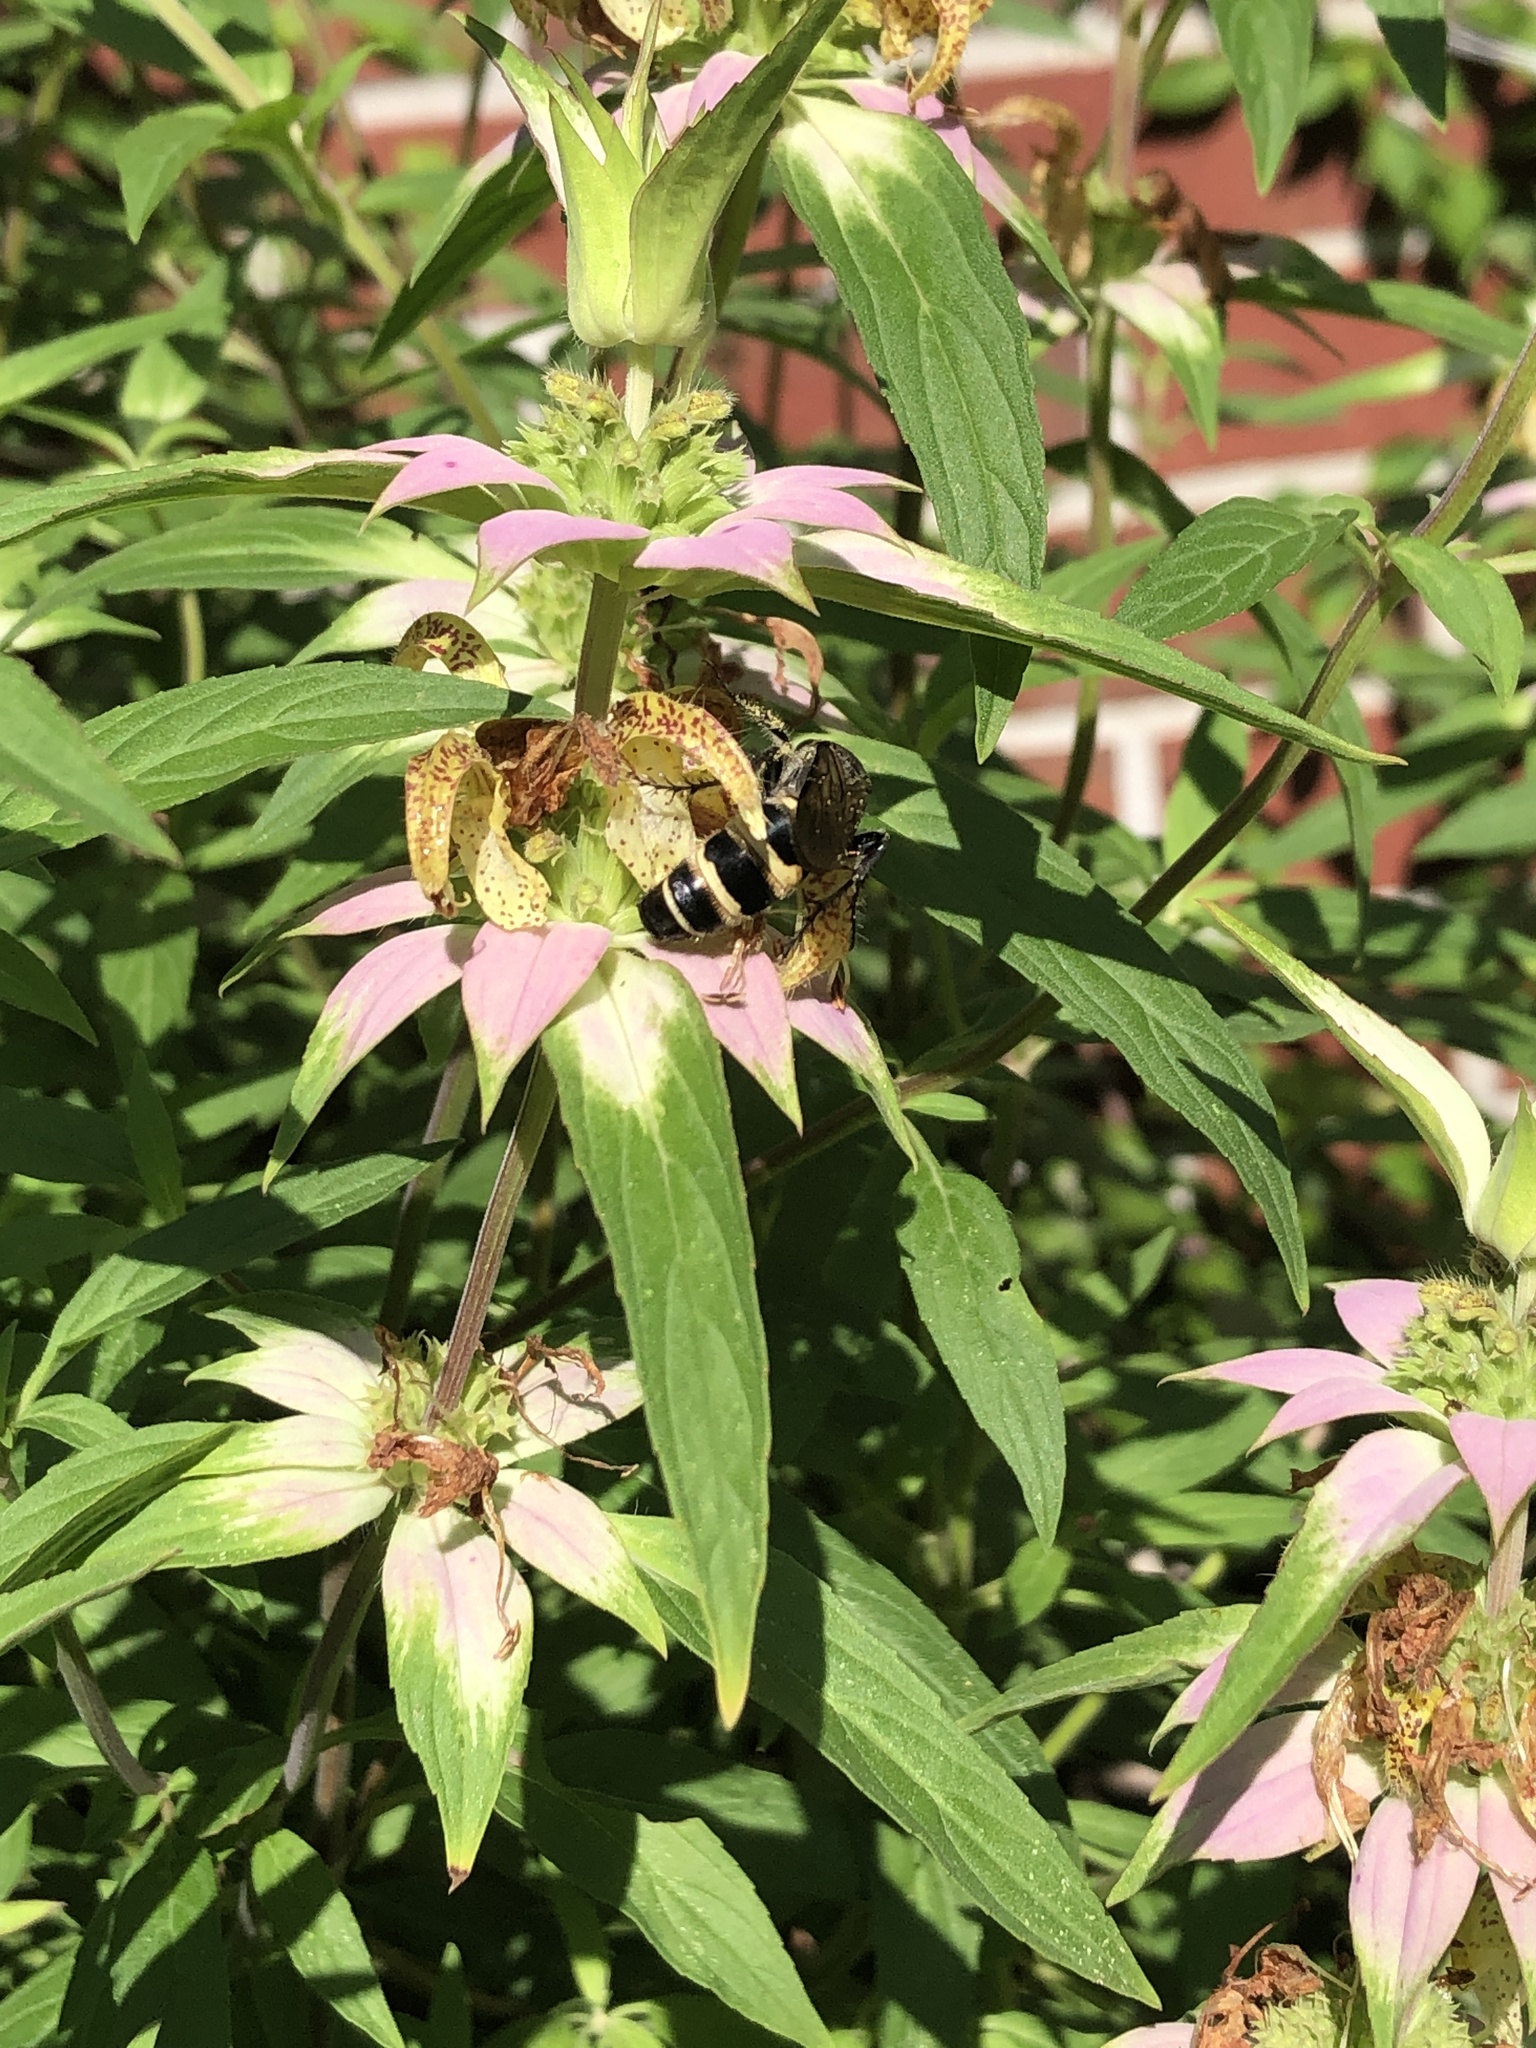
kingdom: Animalia
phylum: Arthropoda
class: Insecta
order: Hymenoptera
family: Scoliidae
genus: Dielis
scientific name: Dielis
